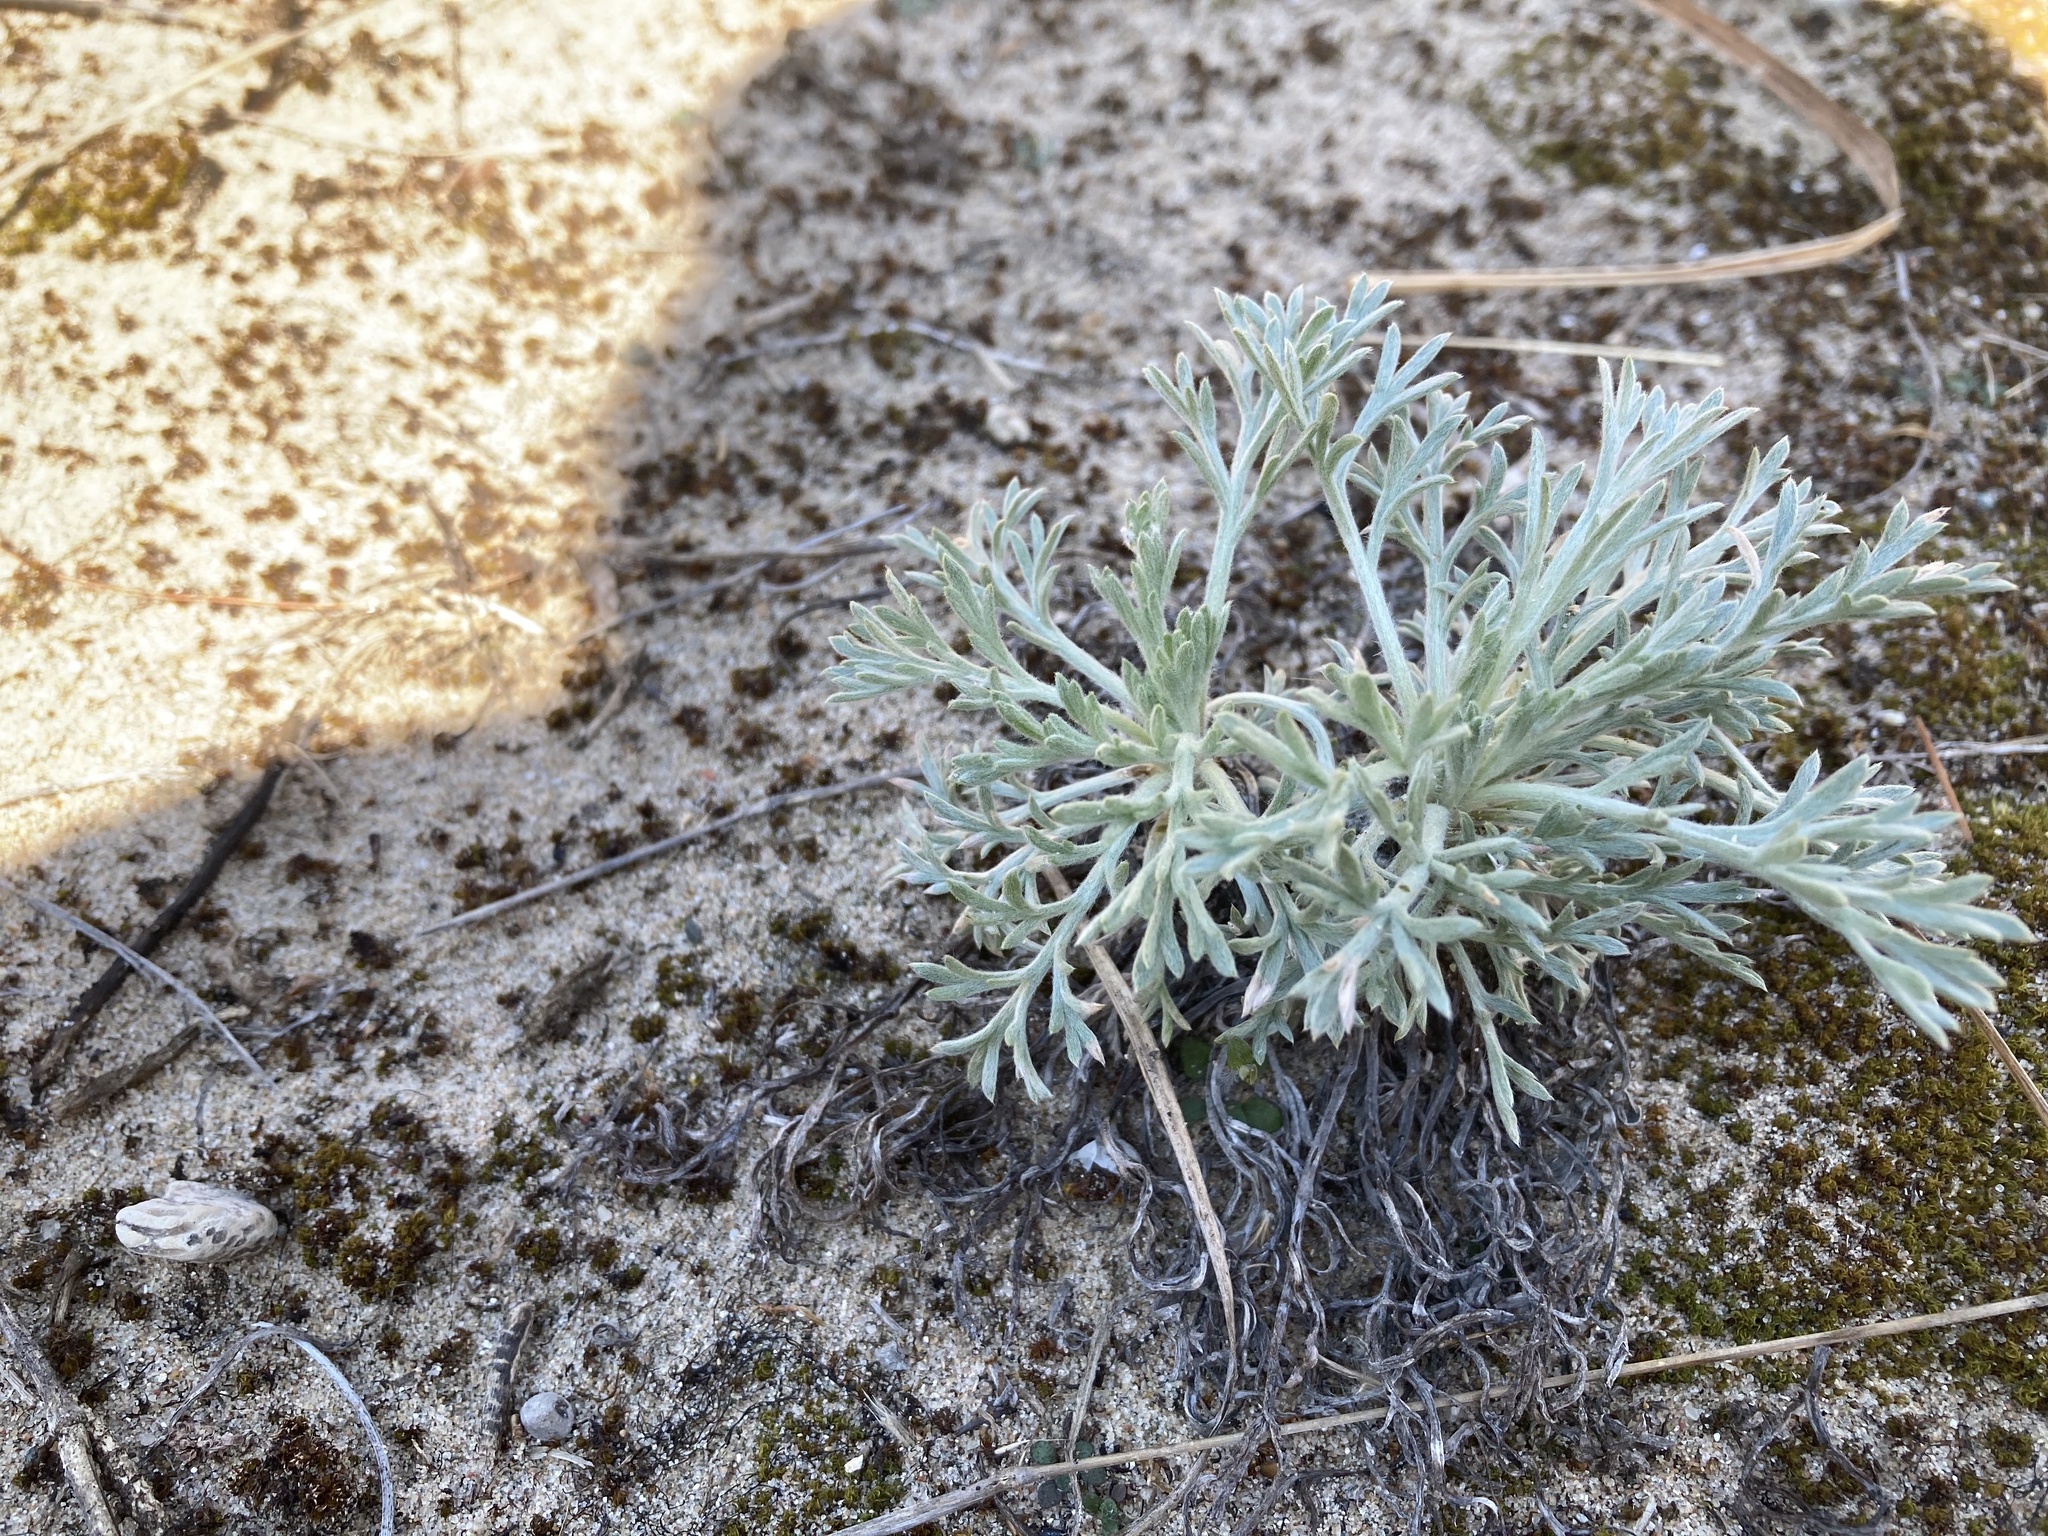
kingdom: Plantae
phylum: Tracheophyta
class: Magnoliopsida
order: Asterales
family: Asteraceae
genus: Artemisia
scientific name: Artemisia campestris
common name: Field wormwood
